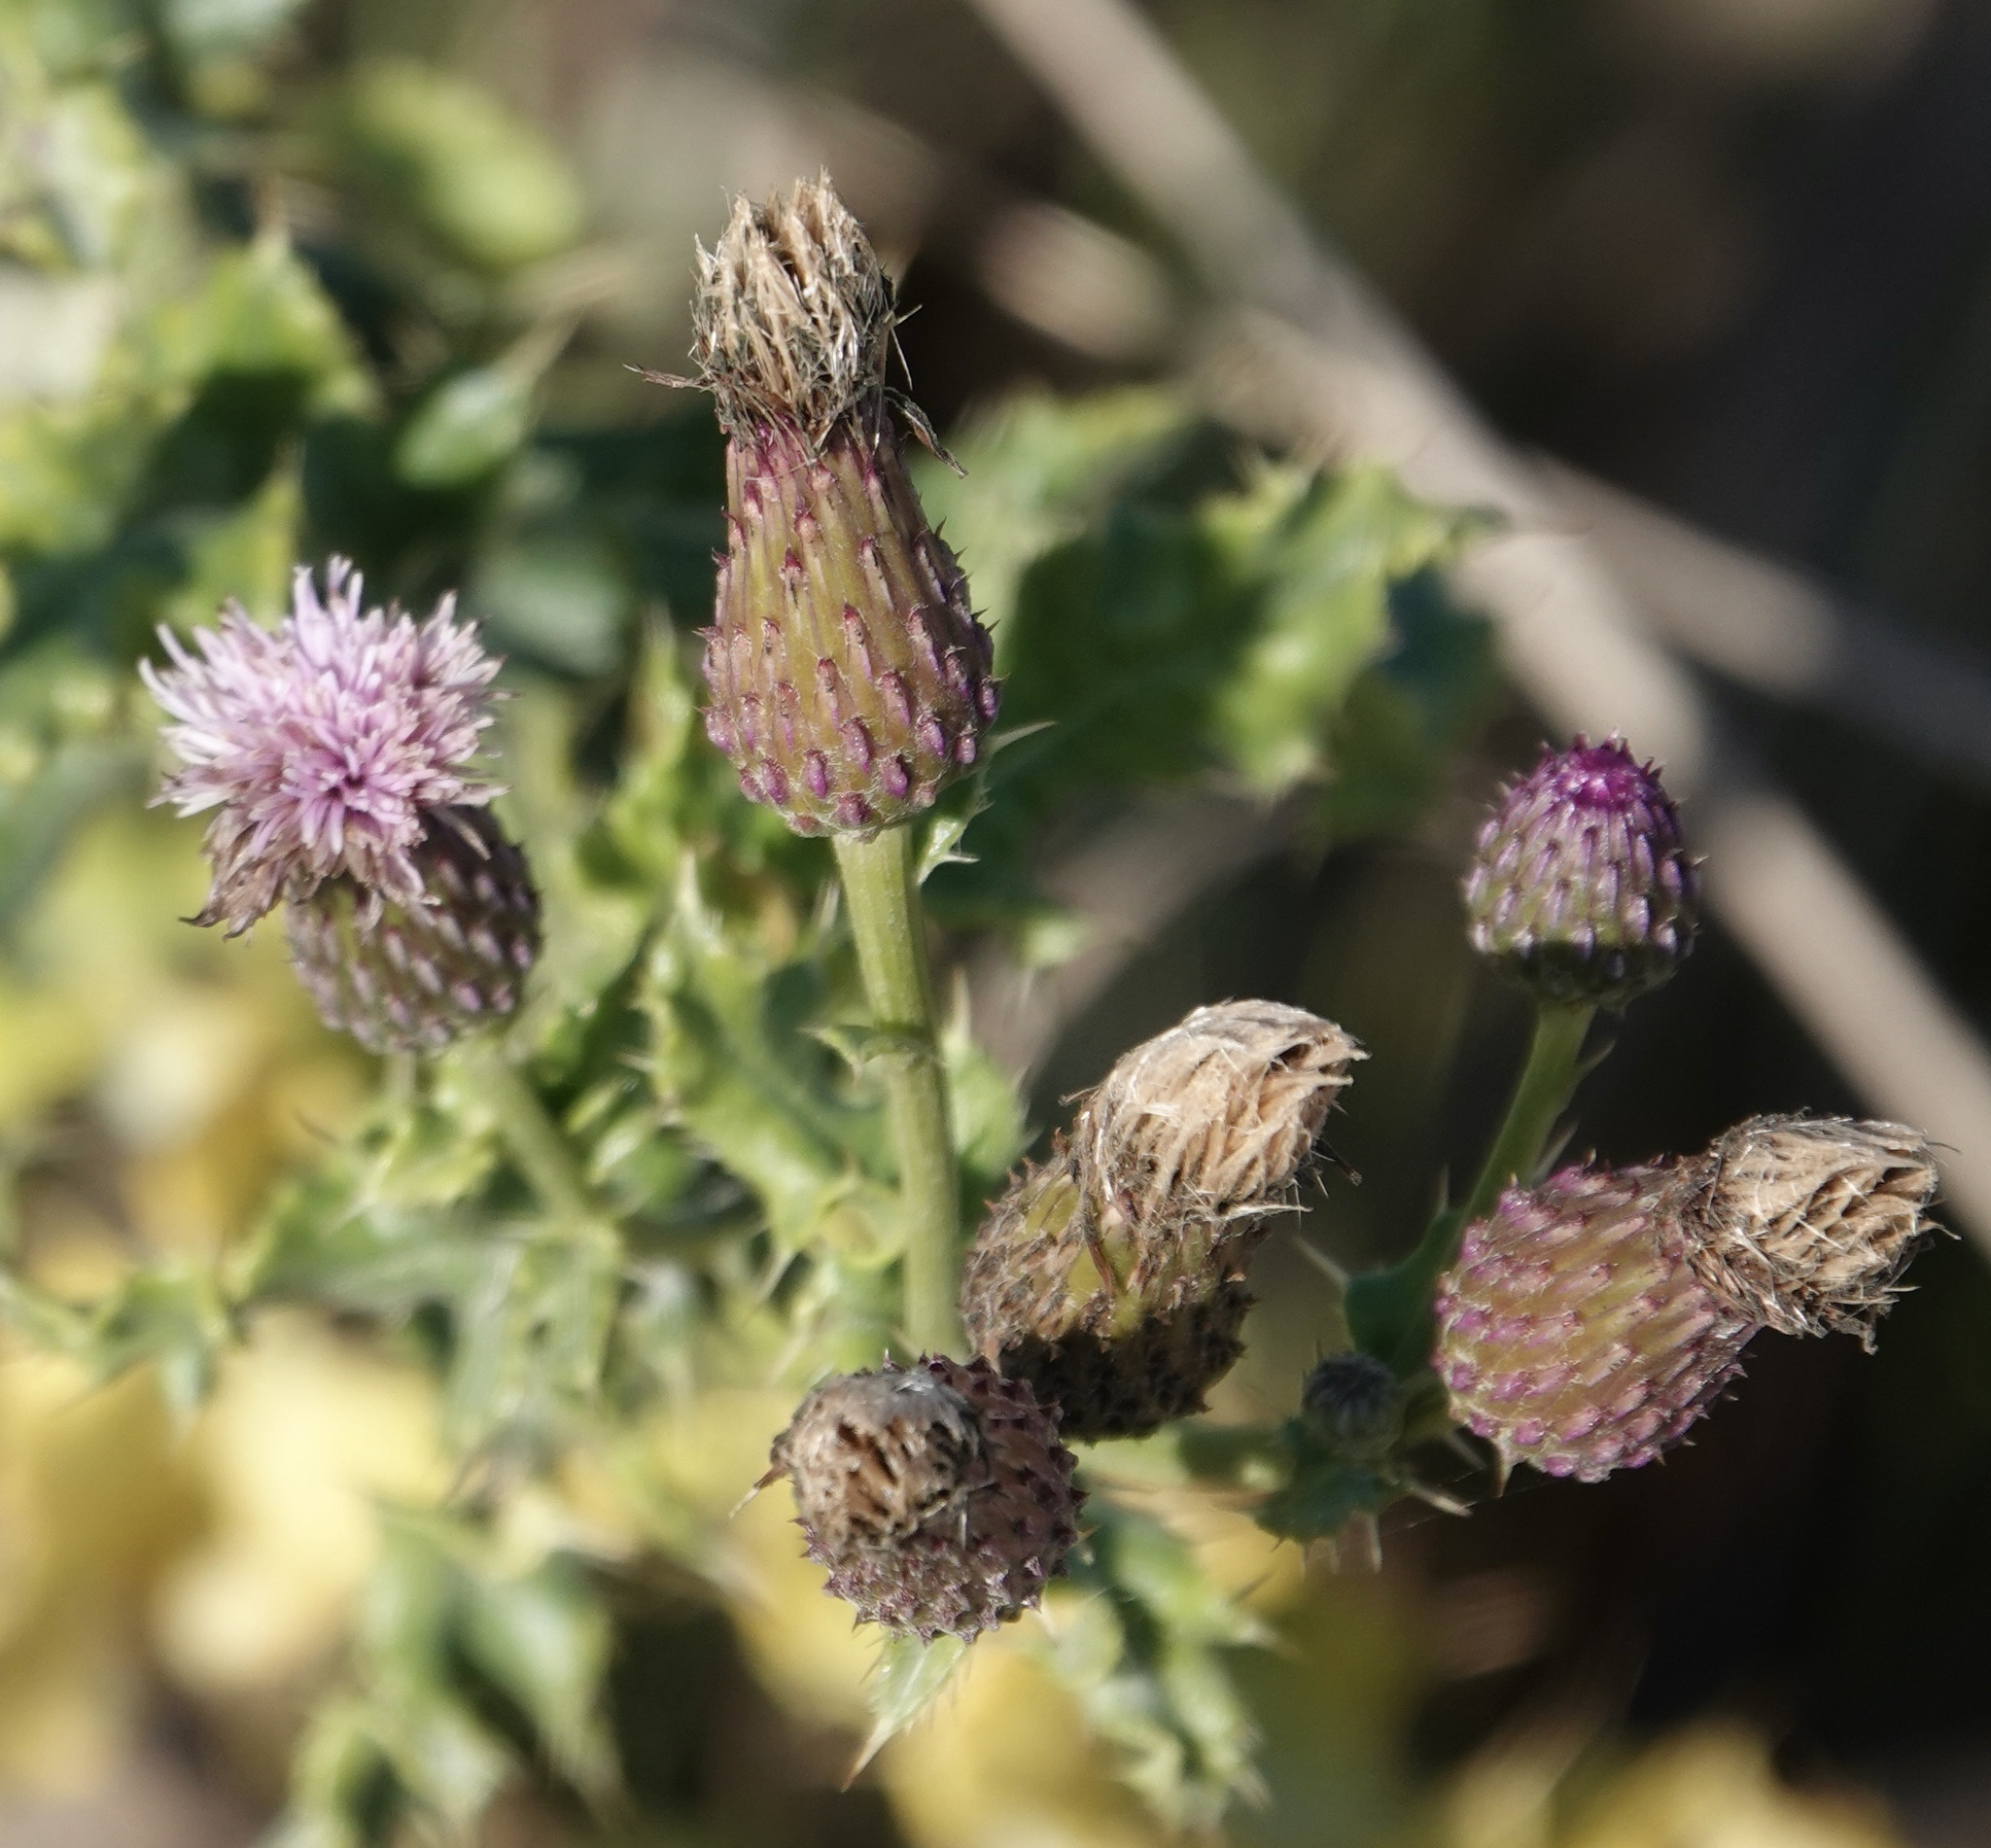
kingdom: Plantae
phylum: Tracheophyta
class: Magnoliopsida
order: Asterales
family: Asteraceae
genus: Cirsium
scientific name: Cirsium arvense
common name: Creeping thistle
